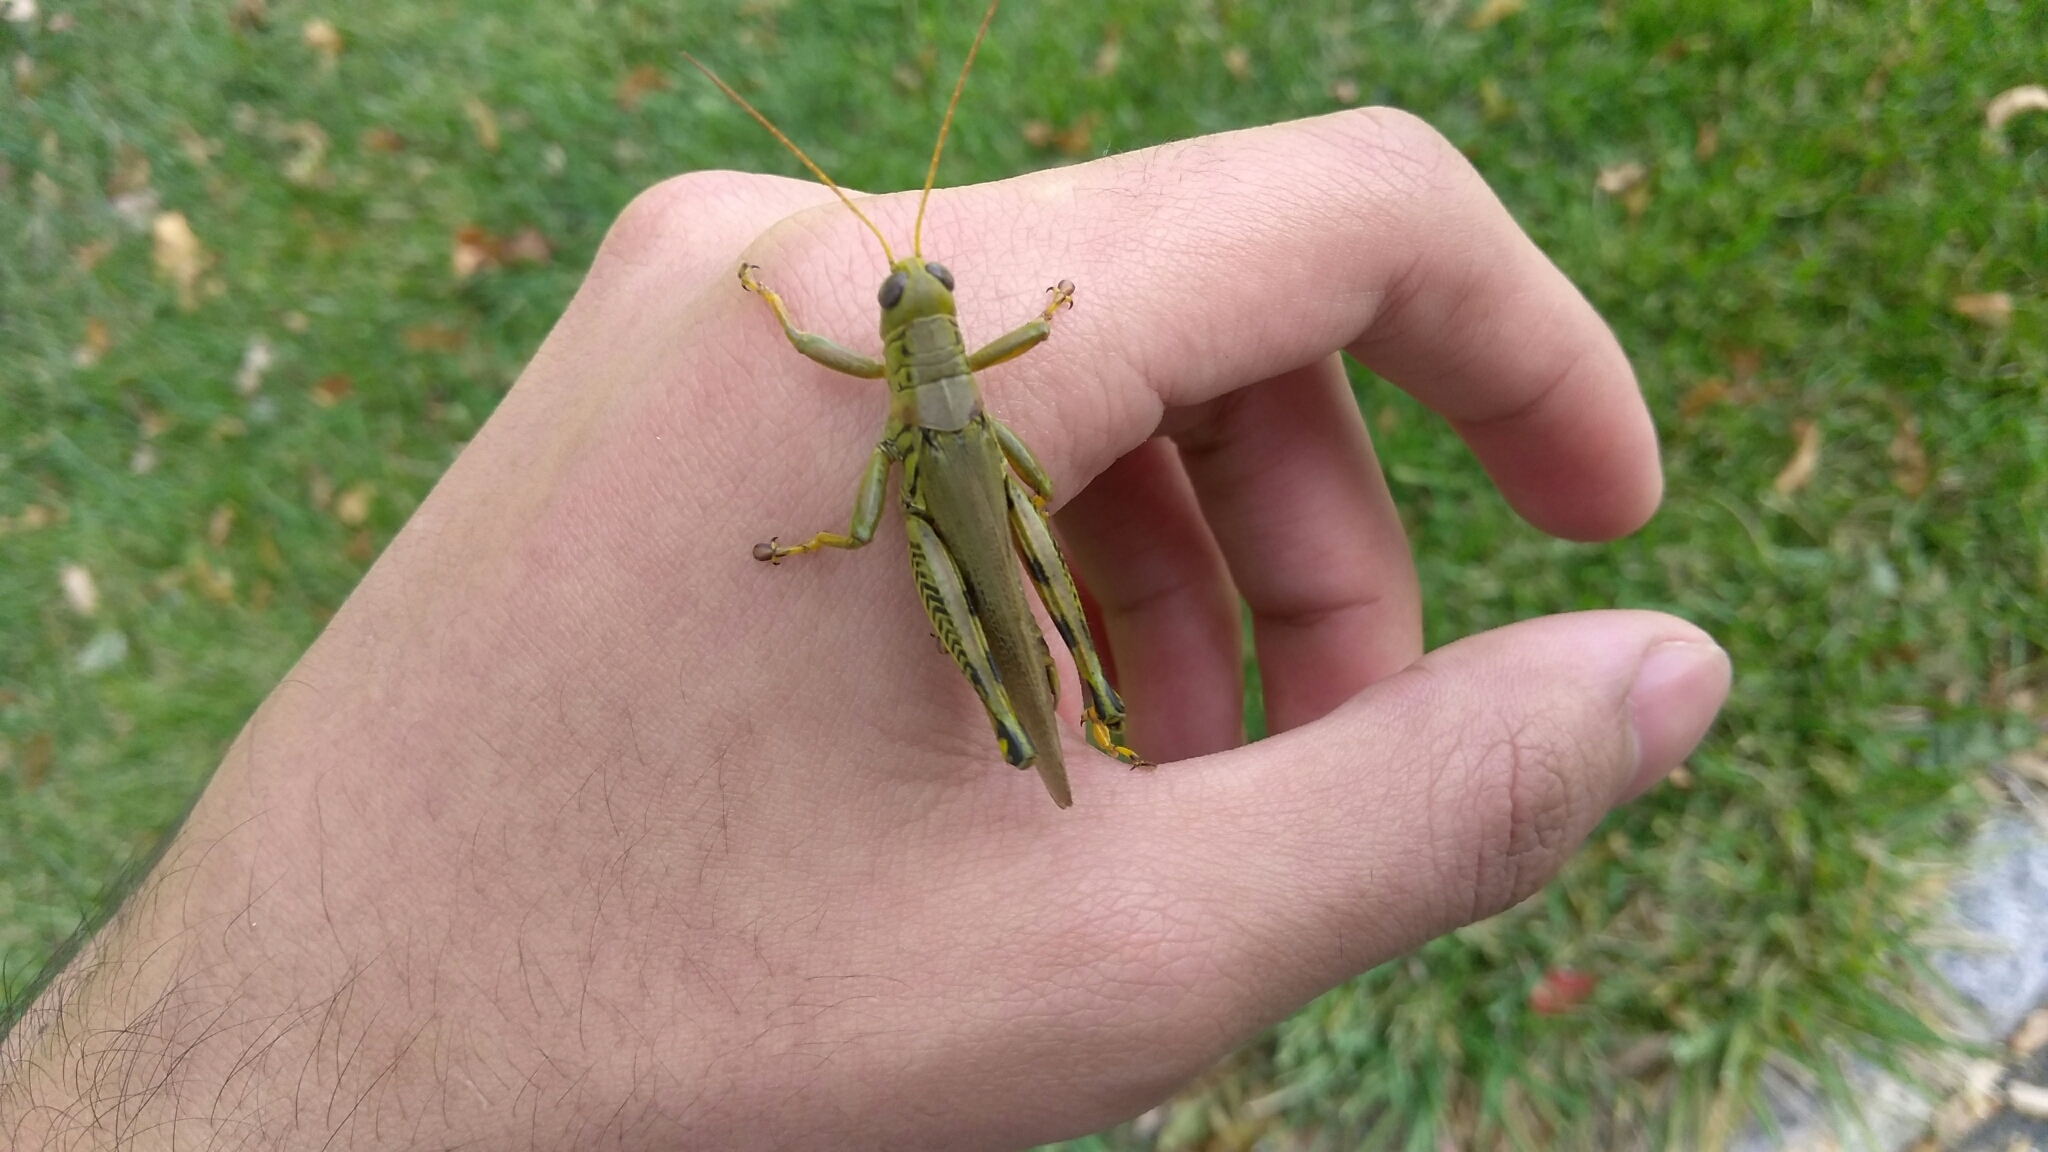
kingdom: Animalia
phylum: Arthropoda
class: Insecta
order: Orthoptera
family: Acrididae
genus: Melanoplus
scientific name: Melanoplus differentialis
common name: Differential grasshopper
